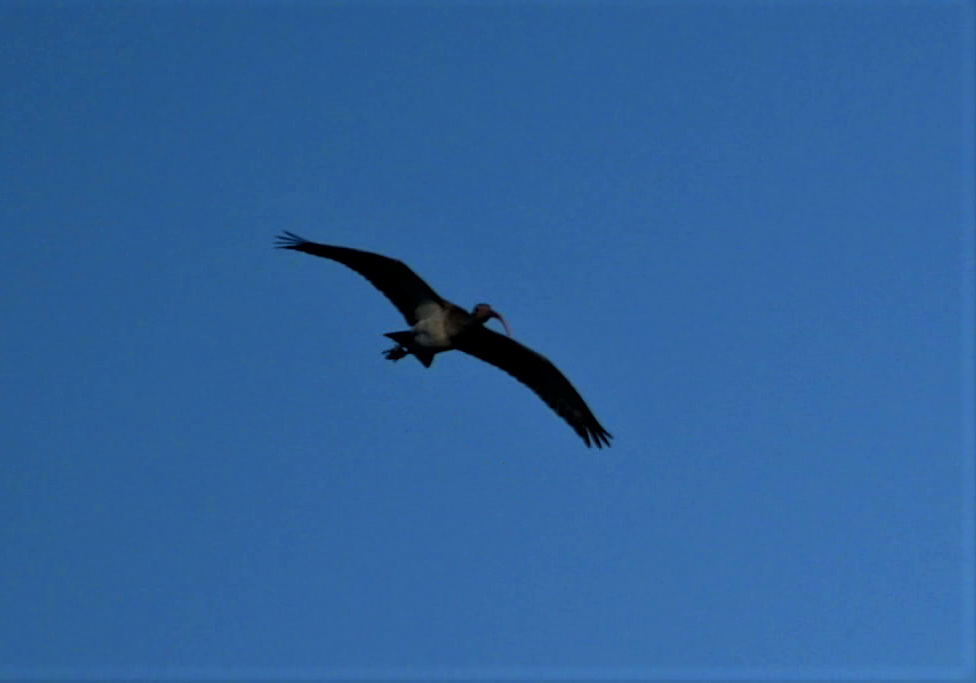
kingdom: Animalia
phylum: Chordata
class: Aves
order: Pelecaniformes
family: Threskiornithidae
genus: Eudocimus
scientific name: Eudocimus albus
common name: White ibis
